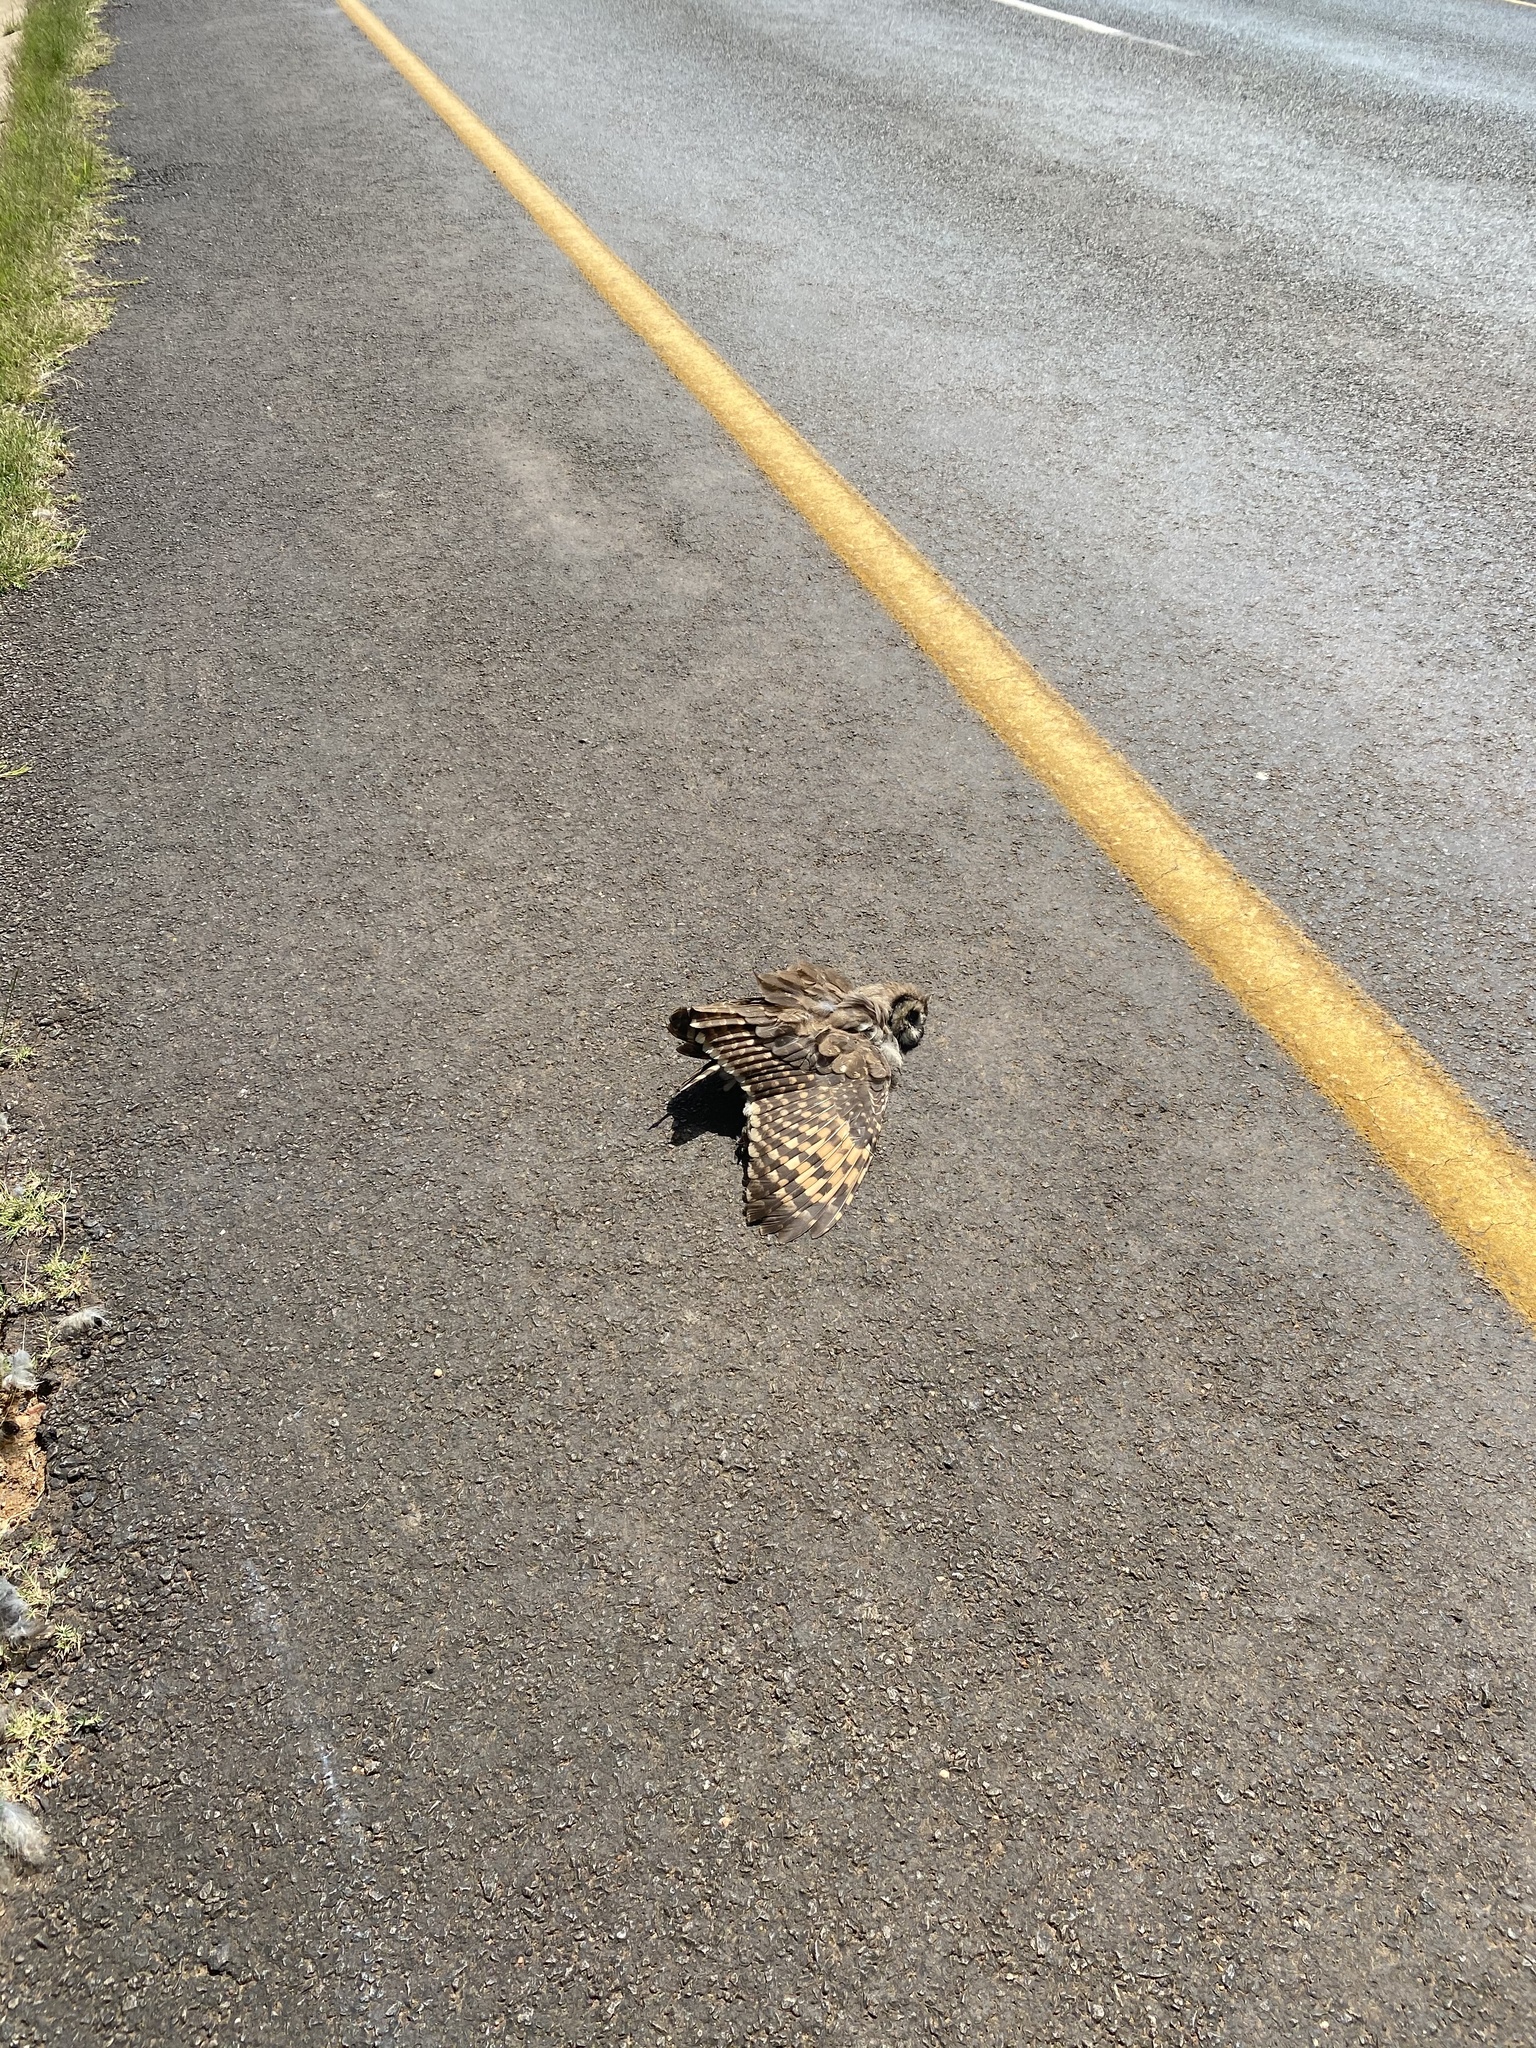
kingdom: Animalia
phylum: Chordata
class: Aves
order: Strigiformes
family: Strigidae
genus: Asio
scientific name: Asio capensis
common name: Marsh owl
